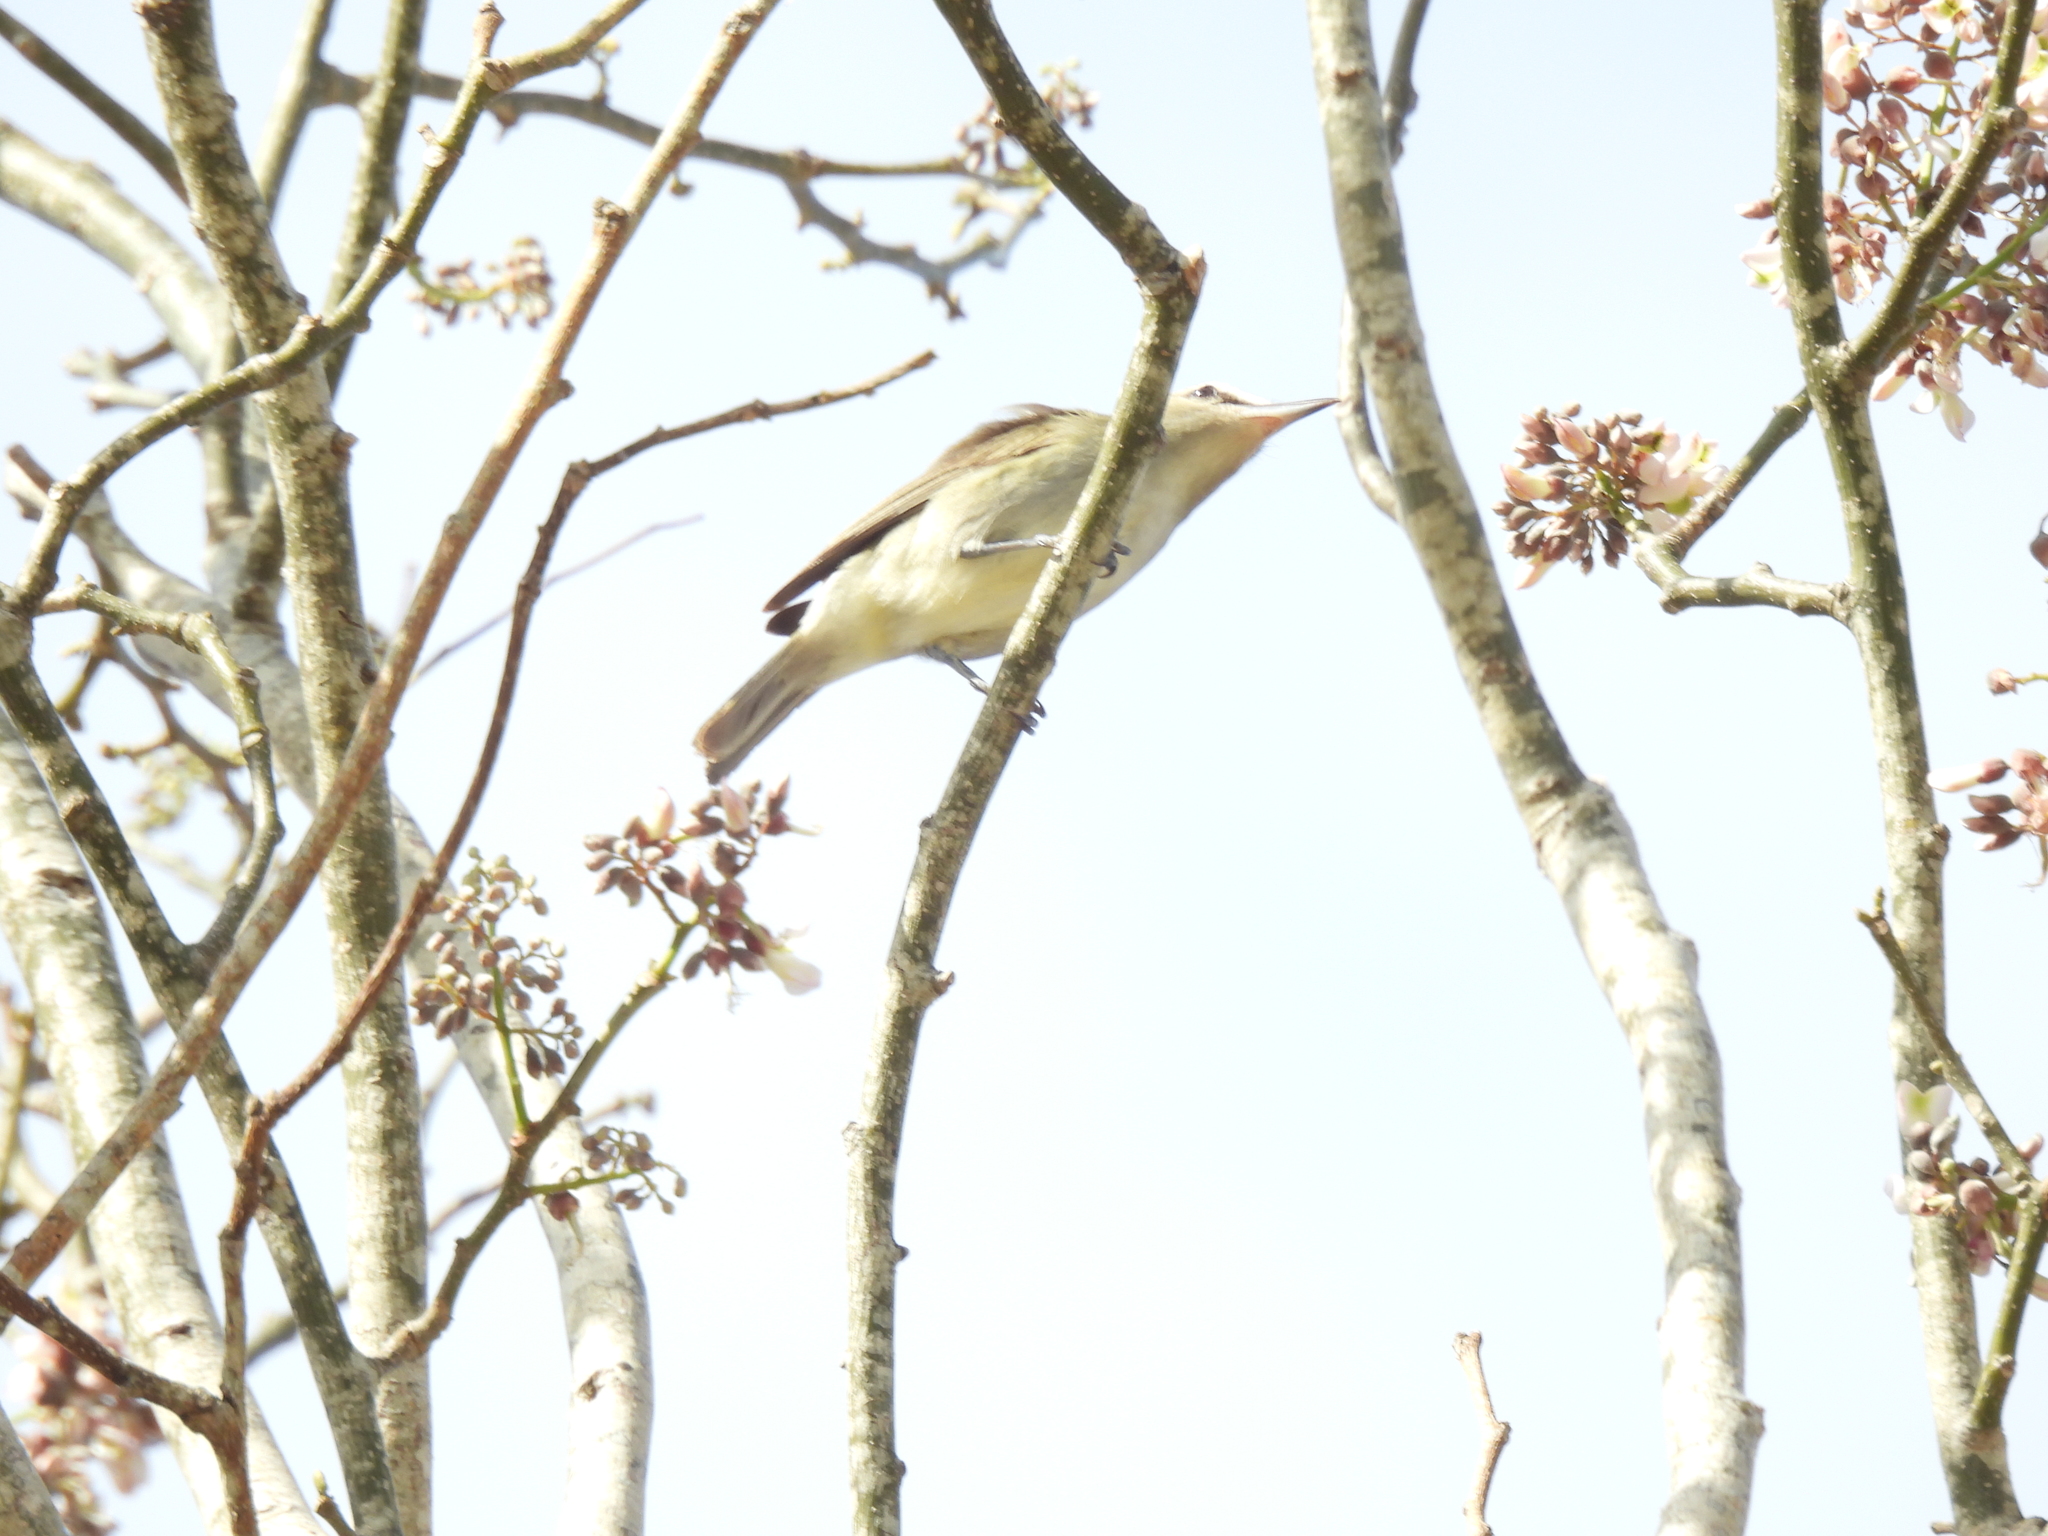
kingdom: Animalia
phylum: Chordata
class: Aves
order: Passeriformes
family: Vireonidae
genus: Vireo
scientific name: Vireo magister
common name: Yucatan vireo
